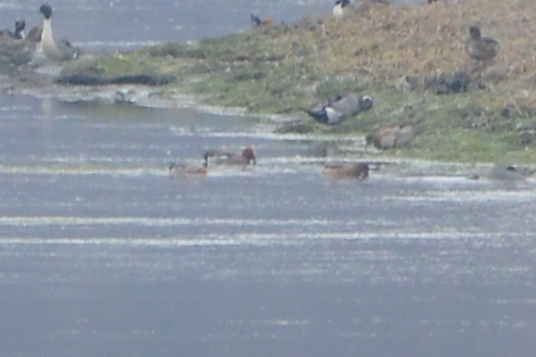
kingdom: Animalia
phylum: Chordata
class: Aves
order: Anseriformes
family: Anatidae
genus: Mareca
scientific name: Mareca penelope
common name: Eurasian wigeon
